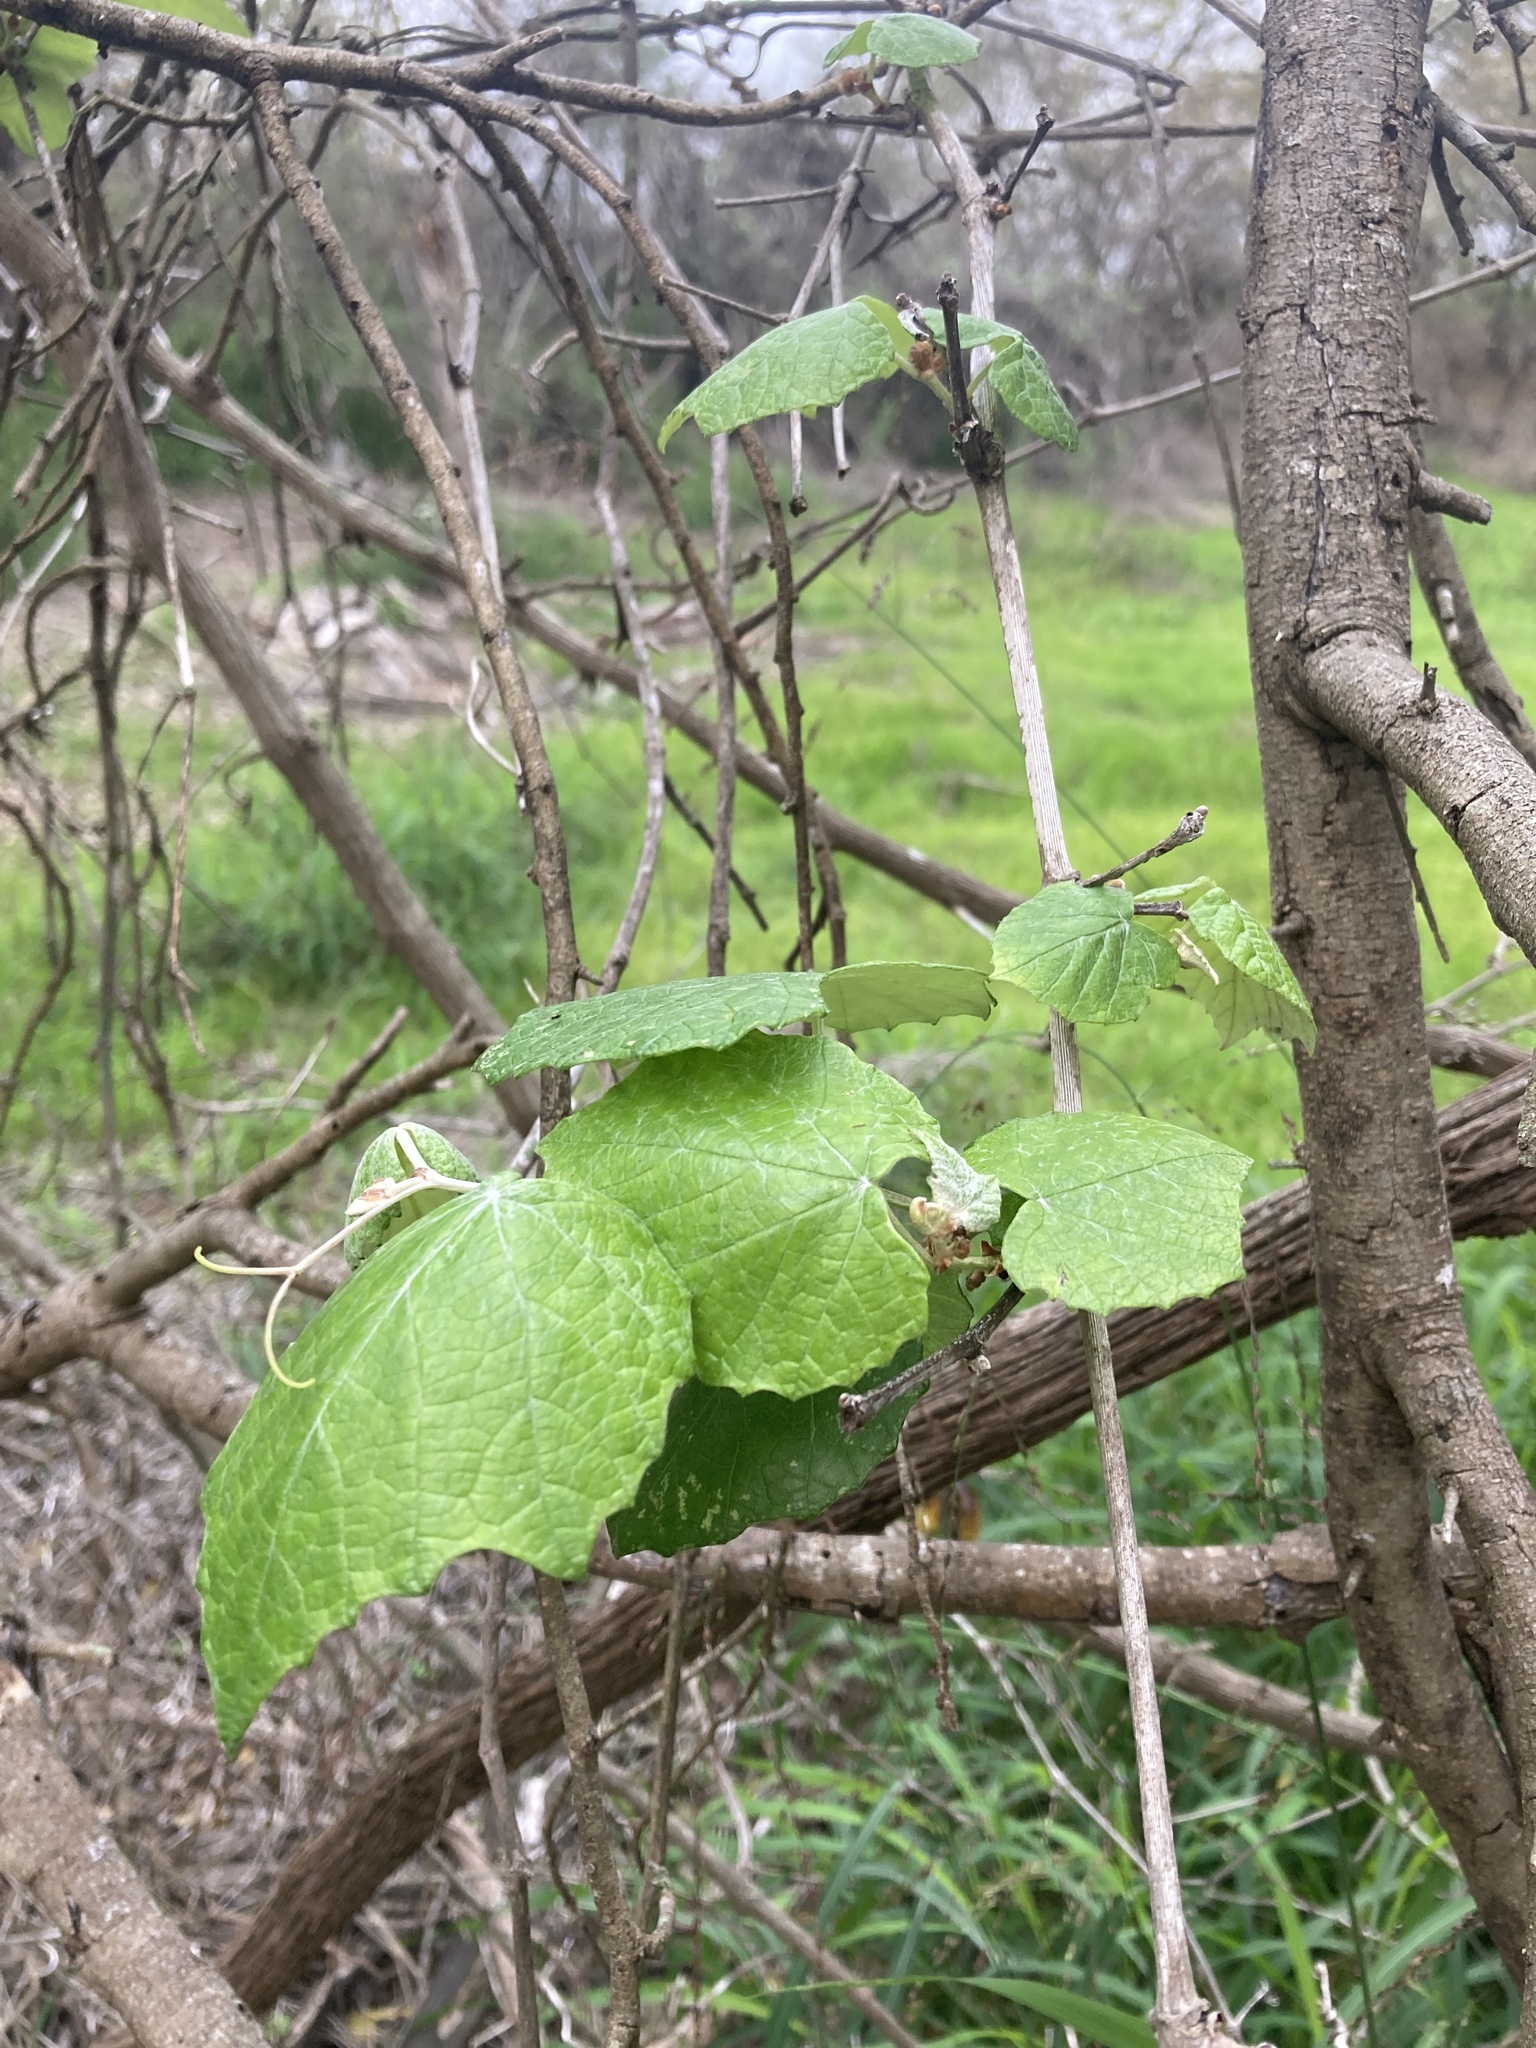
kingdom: Plantae
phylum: Tracheophyta
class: Magnoliopsida
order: Vitales
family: Vitaceae
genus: Vitis
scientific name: Vitis mustangensis
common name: Mustang grape
